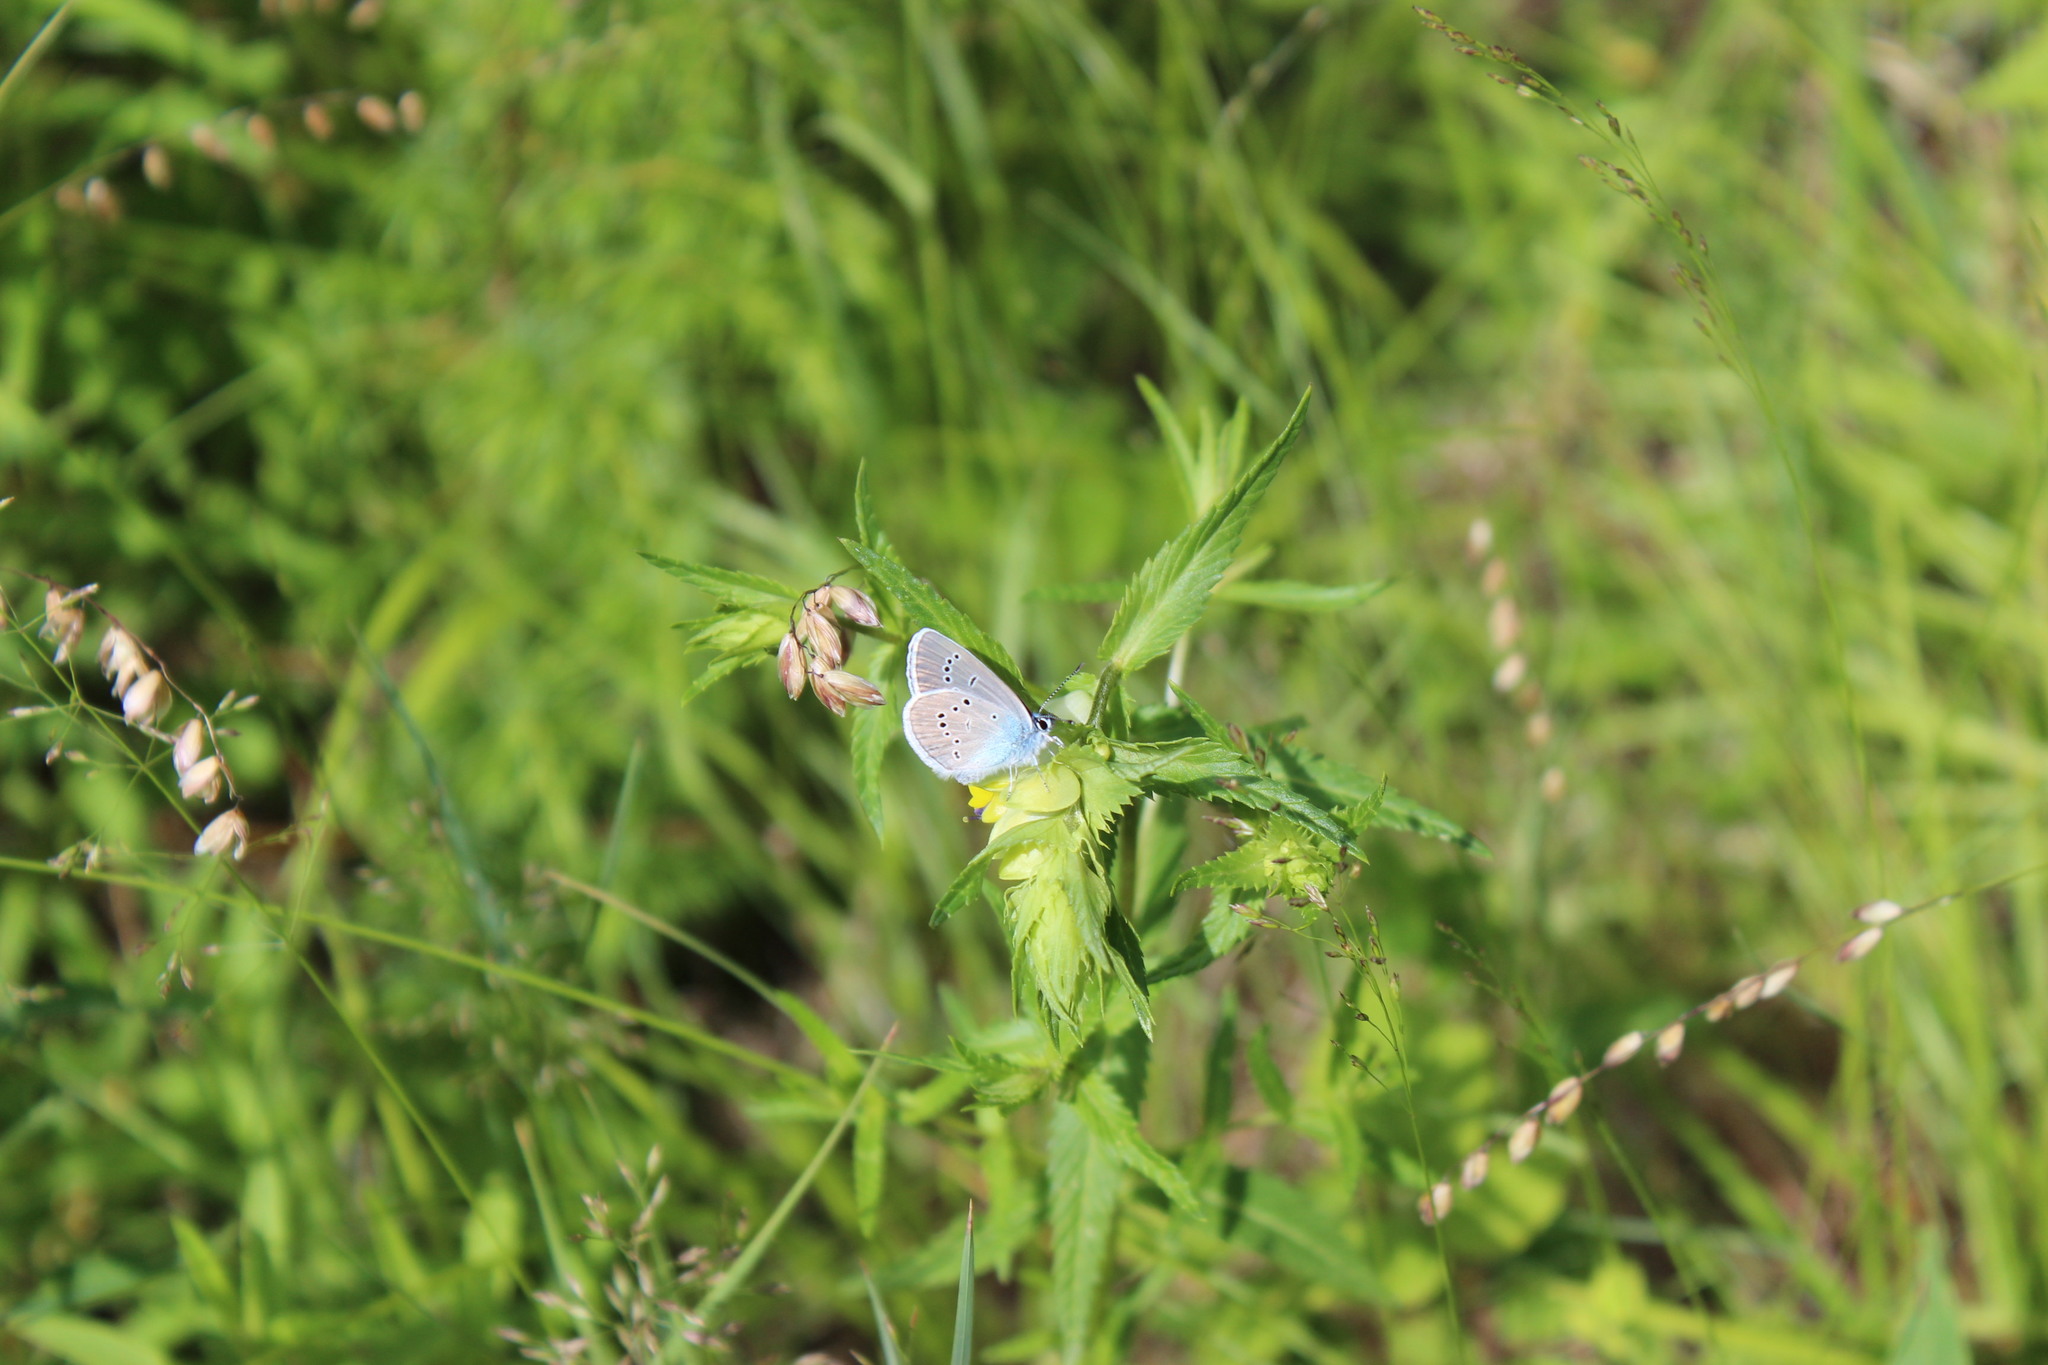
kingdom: Animalia
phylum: Arthropoda
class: Insecta
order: Lepidoptera
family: Lycaenidae
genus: Cyaniris
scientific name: Cyaniris semiargus
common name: Mazarine blue
